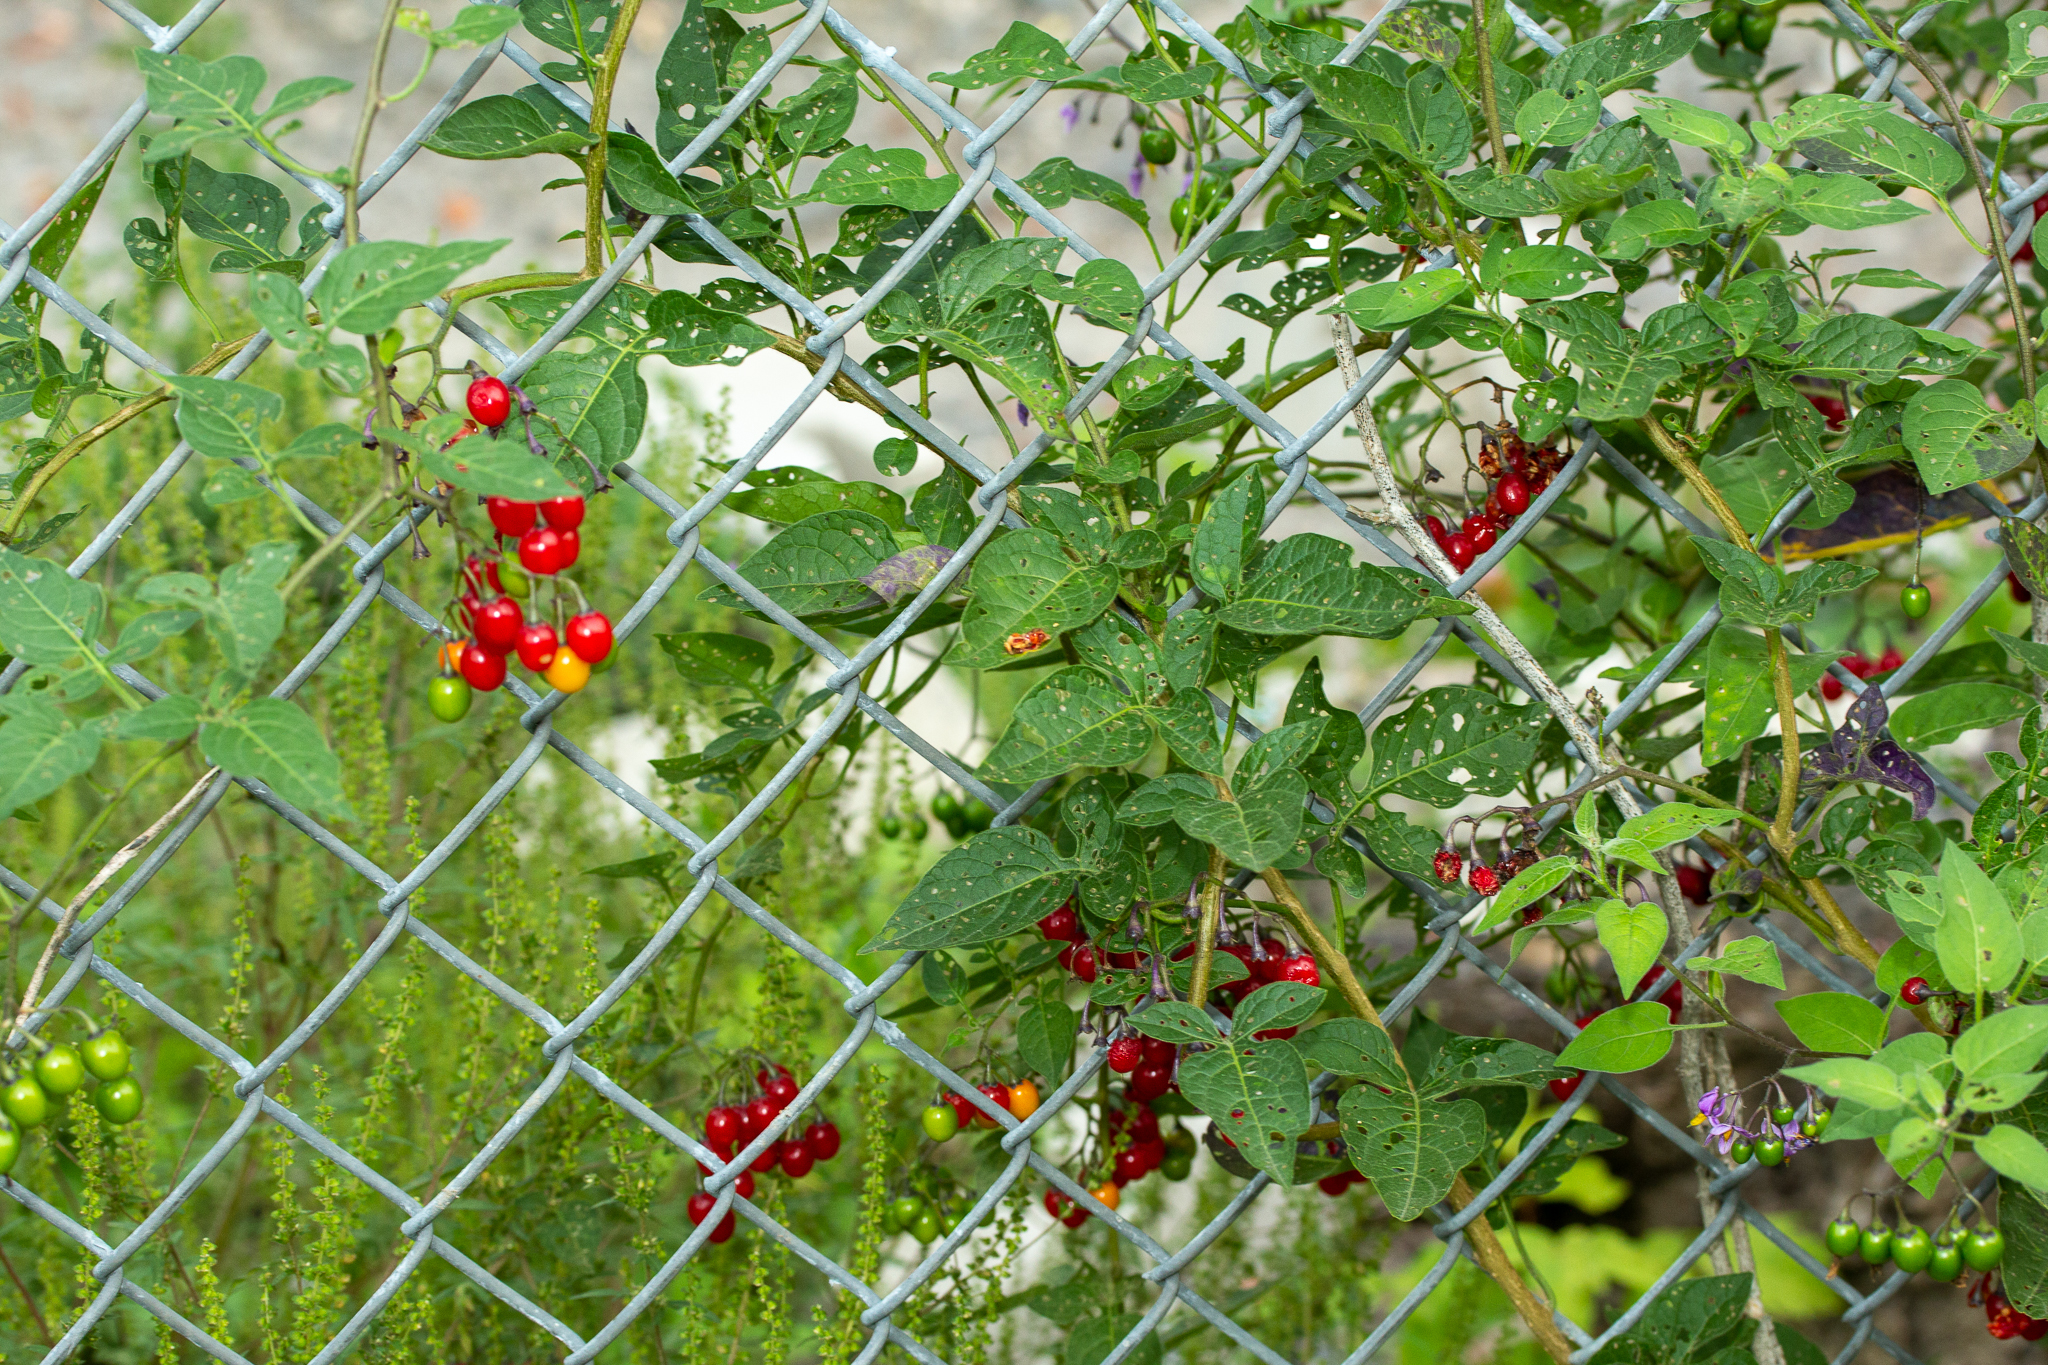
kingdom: Plantae
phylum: Tracheophyta
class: Magnoliopsida
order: Solanales
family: Solanaceae
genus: Solanum
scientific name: Solanum dulcamara
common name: Climbing nightshade
